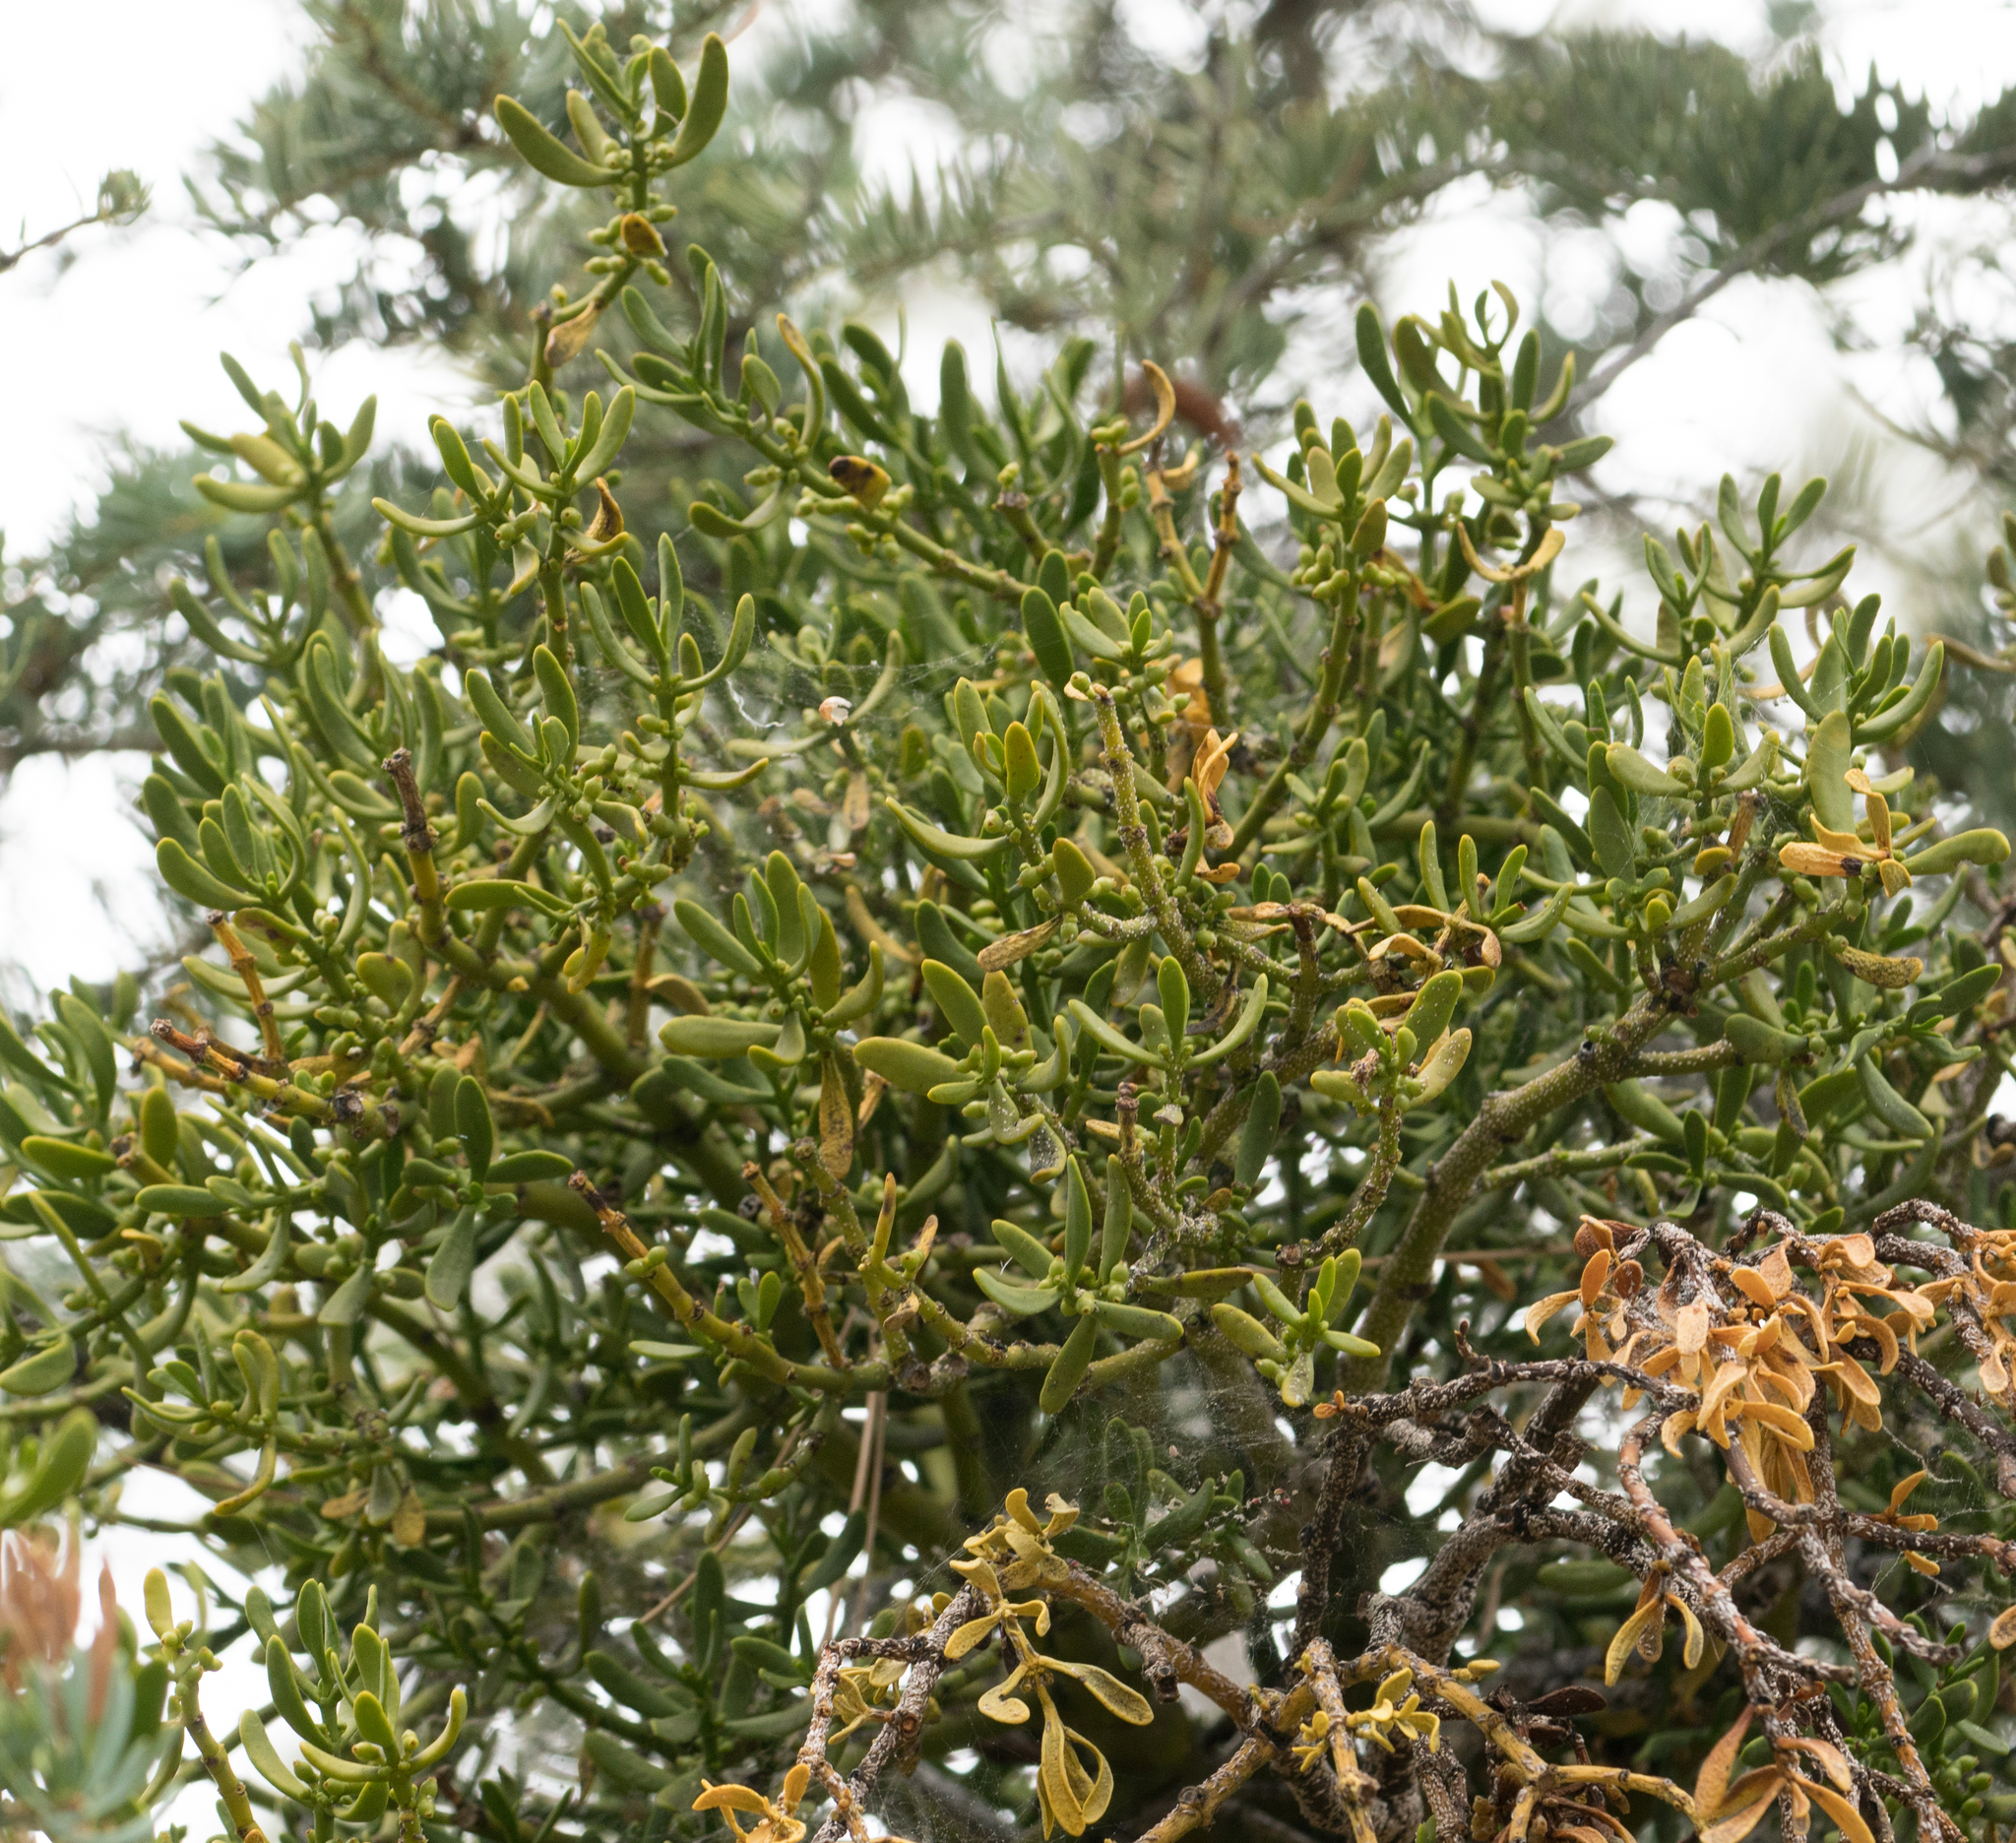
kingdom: Plantae
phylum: Tracheophyta
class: Magnoliopsida
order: Santalales
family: Viscaceae
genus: Phoradendron
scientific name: Phoradendron bolleanum
